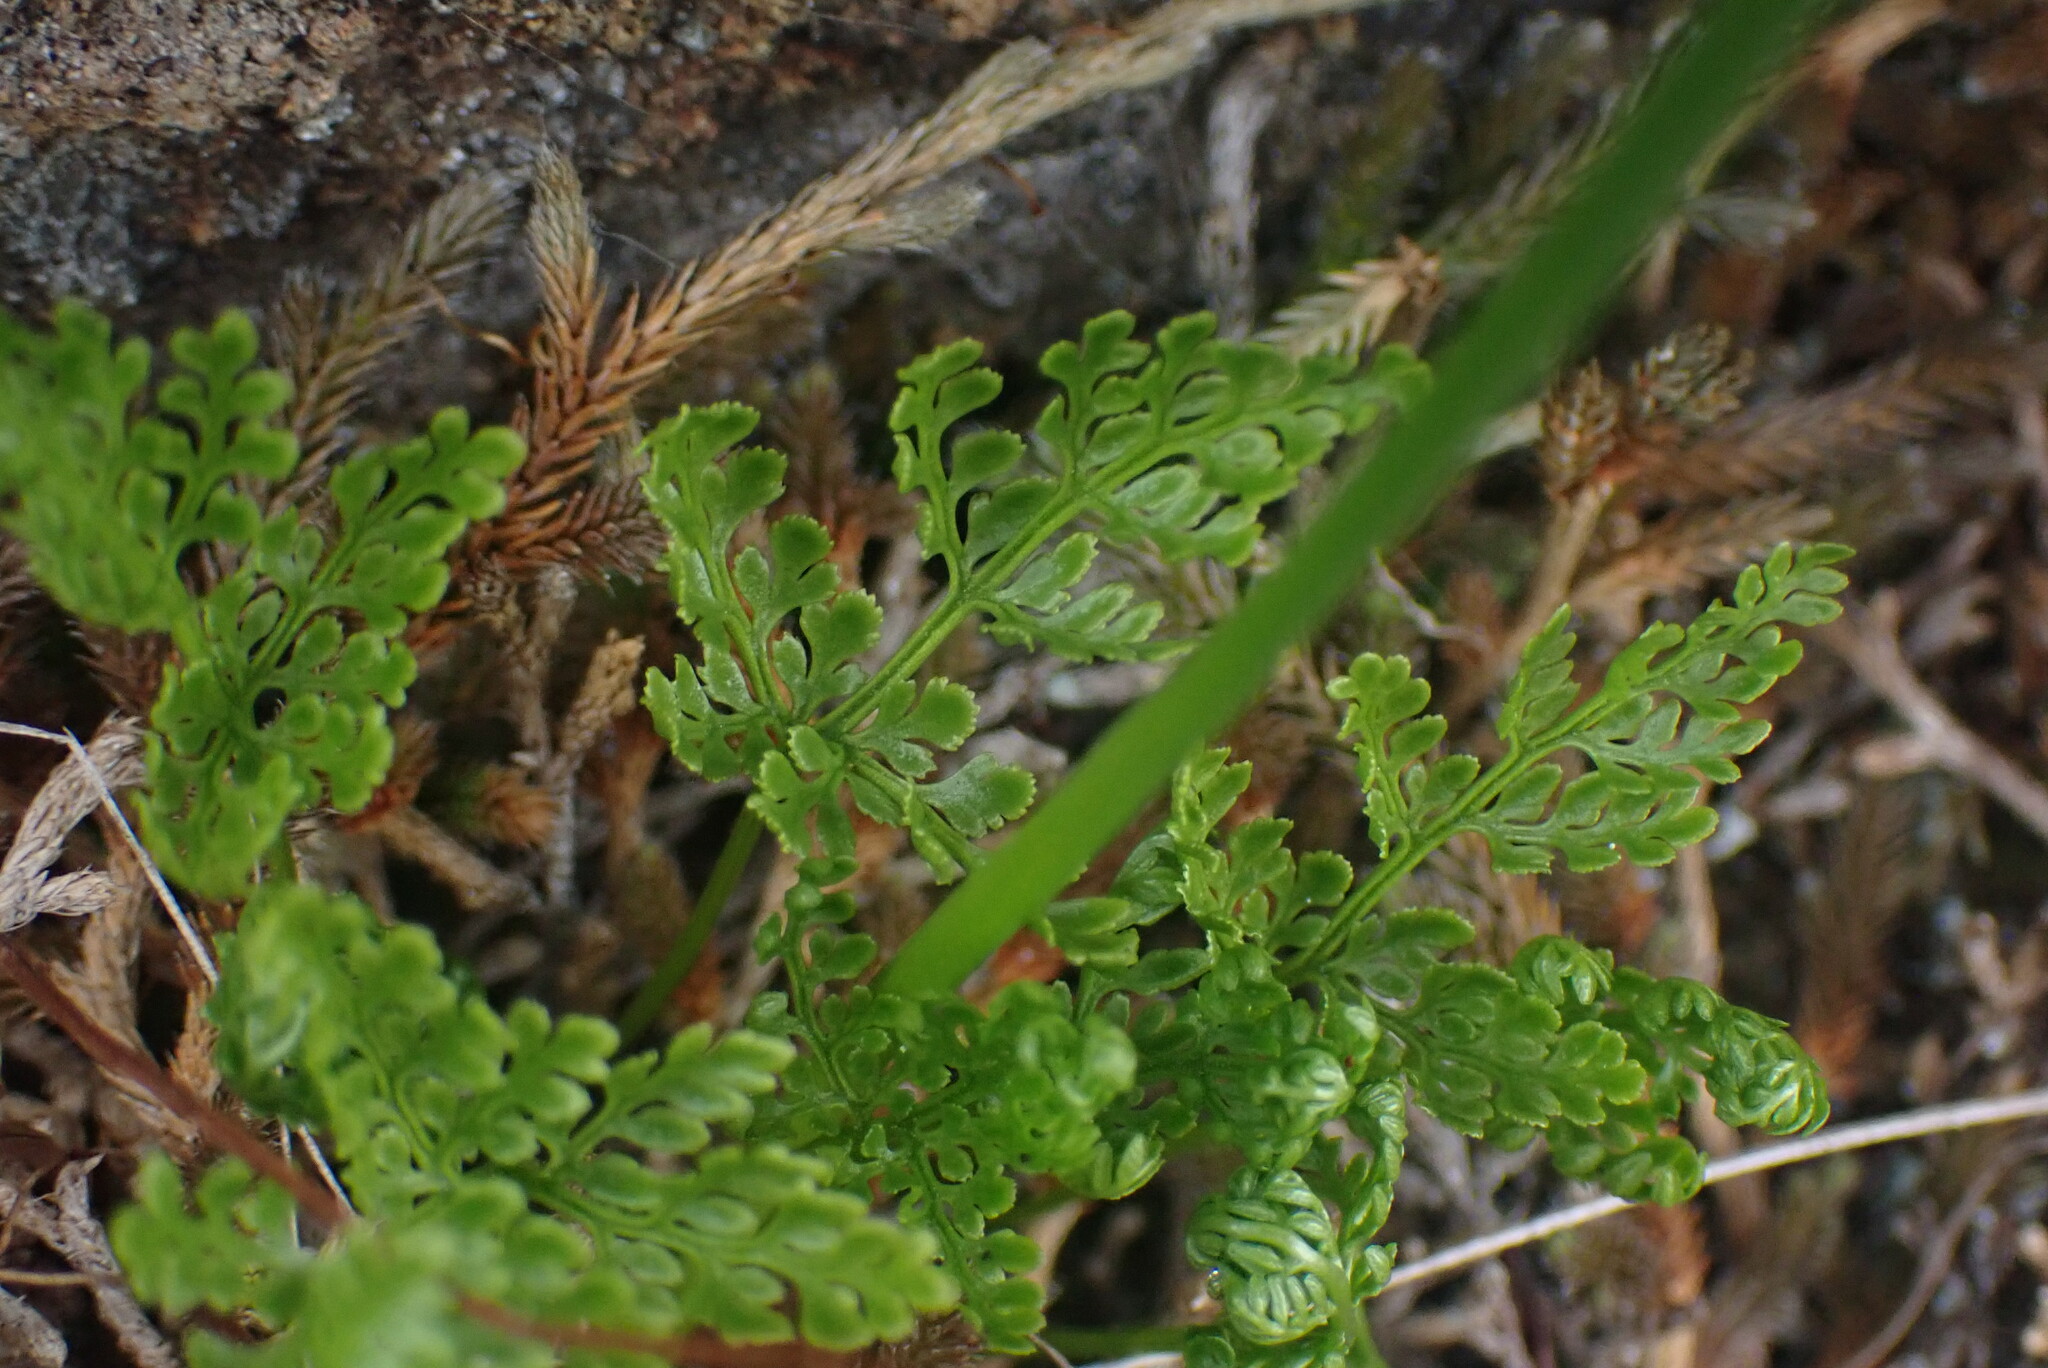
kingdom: Plantae
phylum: Tracheophyta
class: Polypodiopsida
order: Polypodiales
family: Pteridaceae
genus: Cryptogramma
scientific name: Cryptogramma acrostichoides
